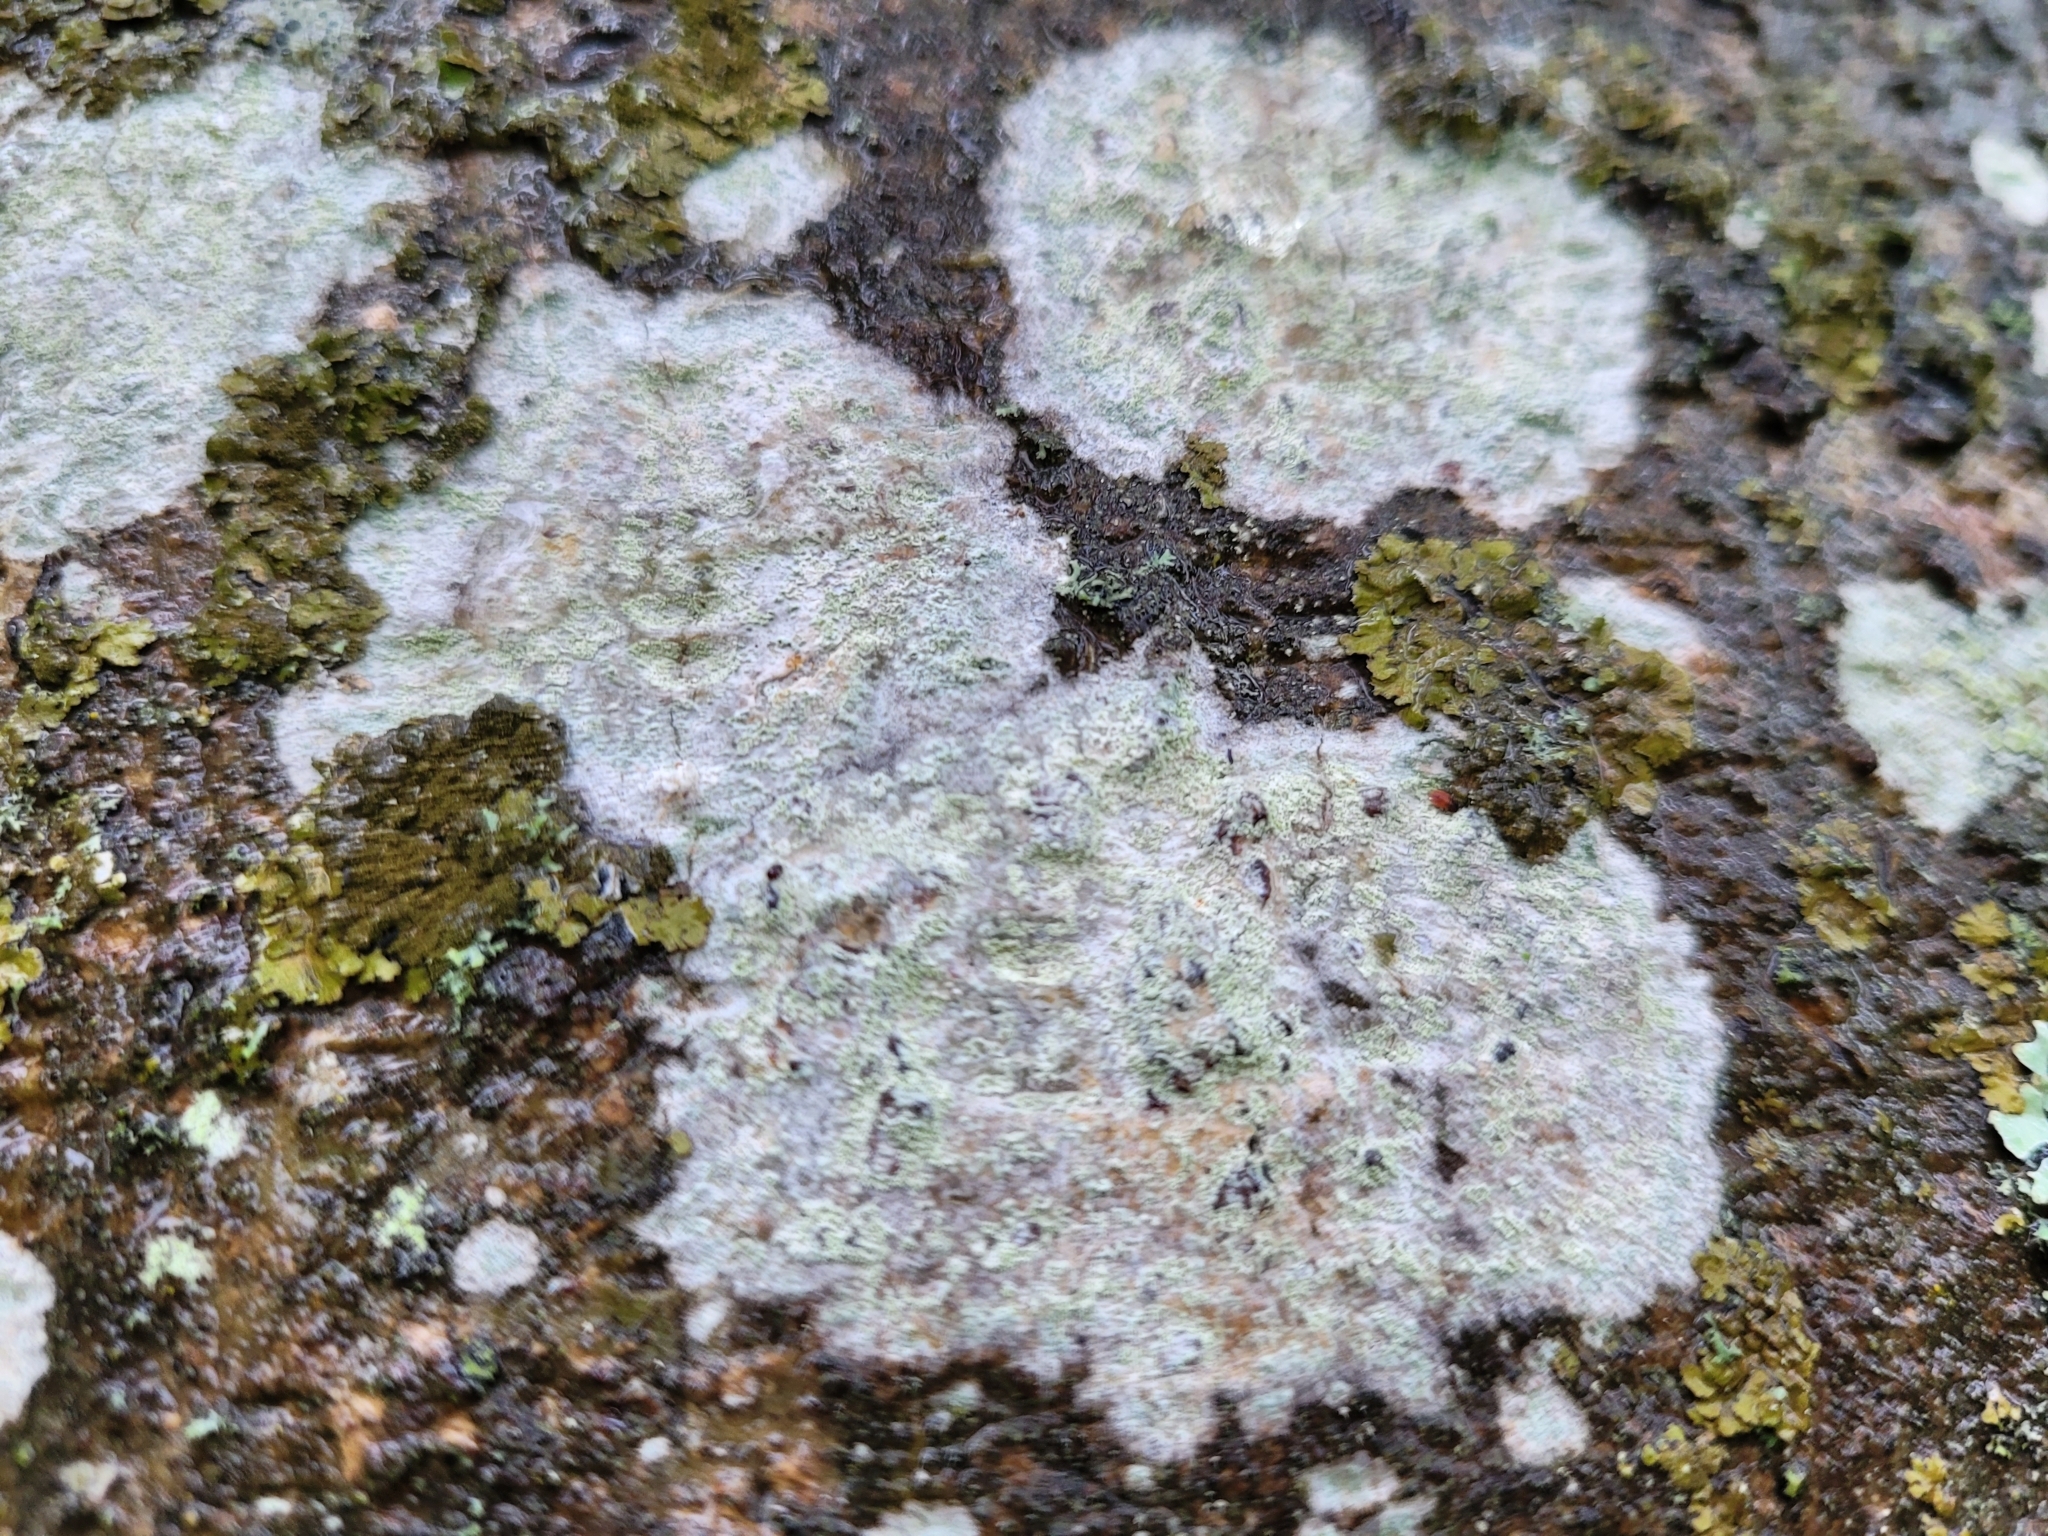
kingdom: Fungi
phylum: Ascomycota
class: Lecanoromycetes
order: Ostropales
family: Phlyctidaceae
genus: Phlyctis
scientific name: Phlyctis argena
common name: Whitewash lichen
